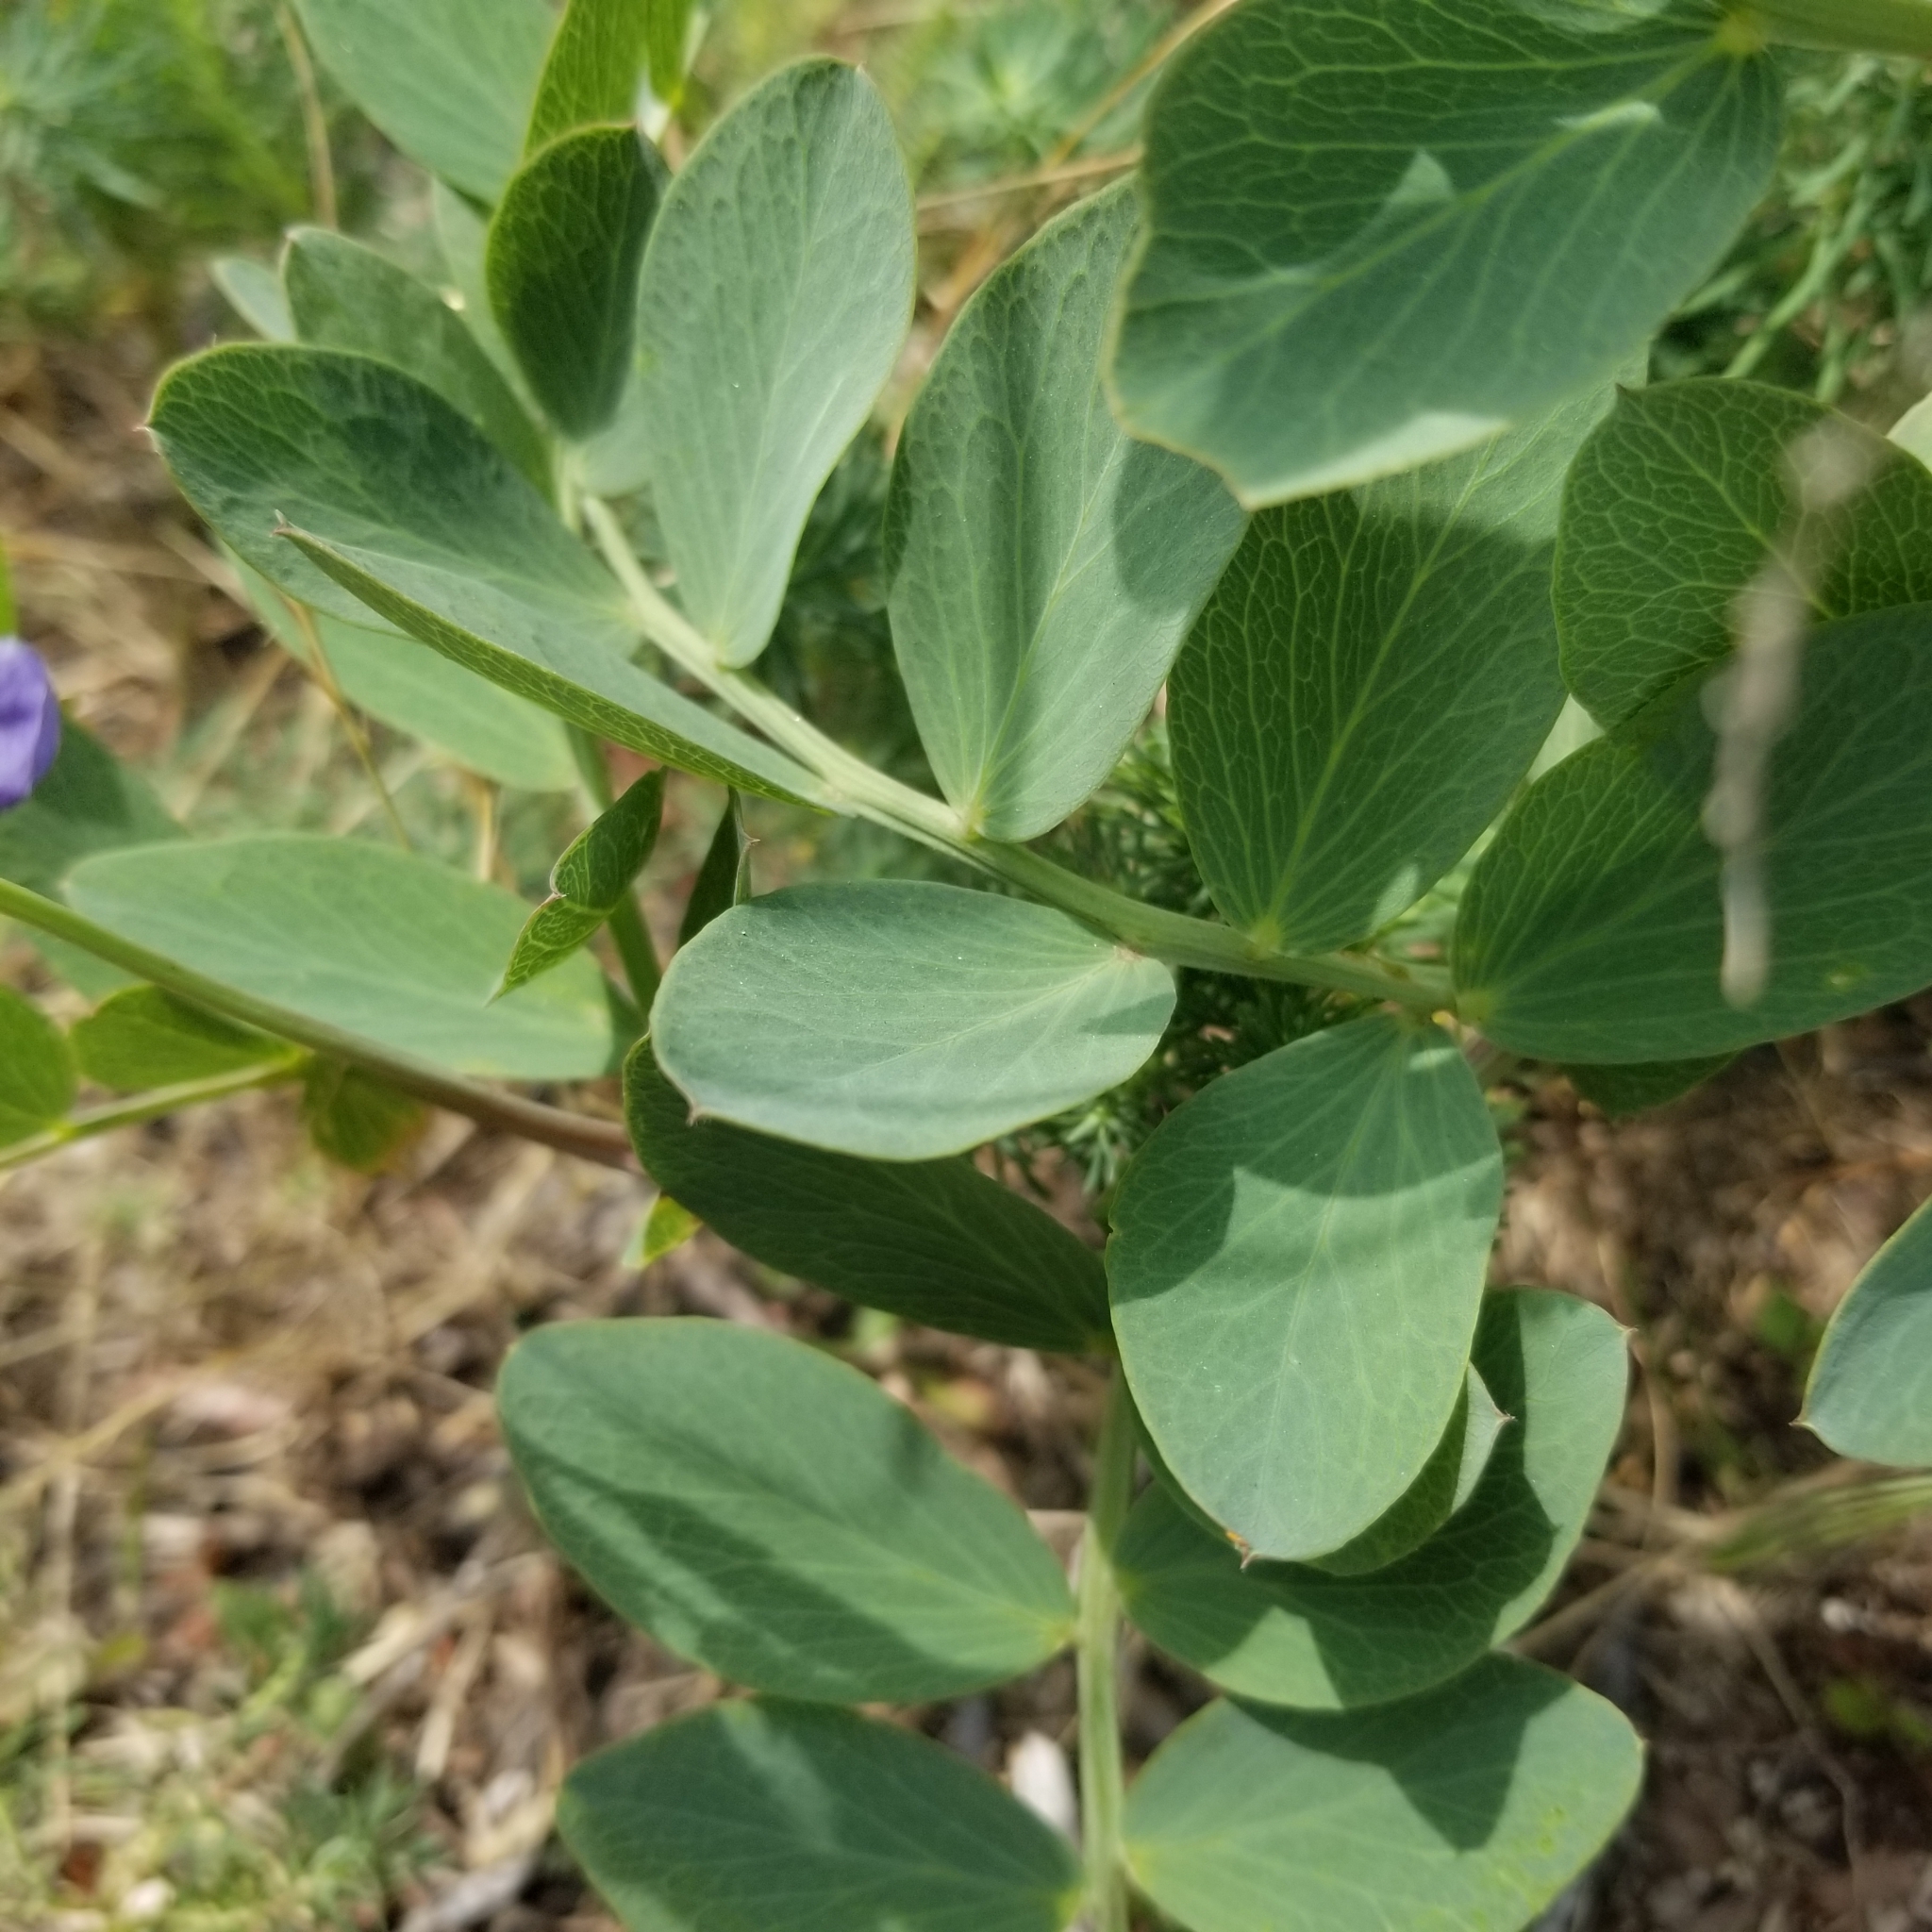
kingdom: Plantae
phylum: Tracheophyta
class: Magnoliopsida
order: Fabales
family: Fabaceae
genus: Lathyrus
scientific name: Lathyrus japonicus
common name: Sea pea
